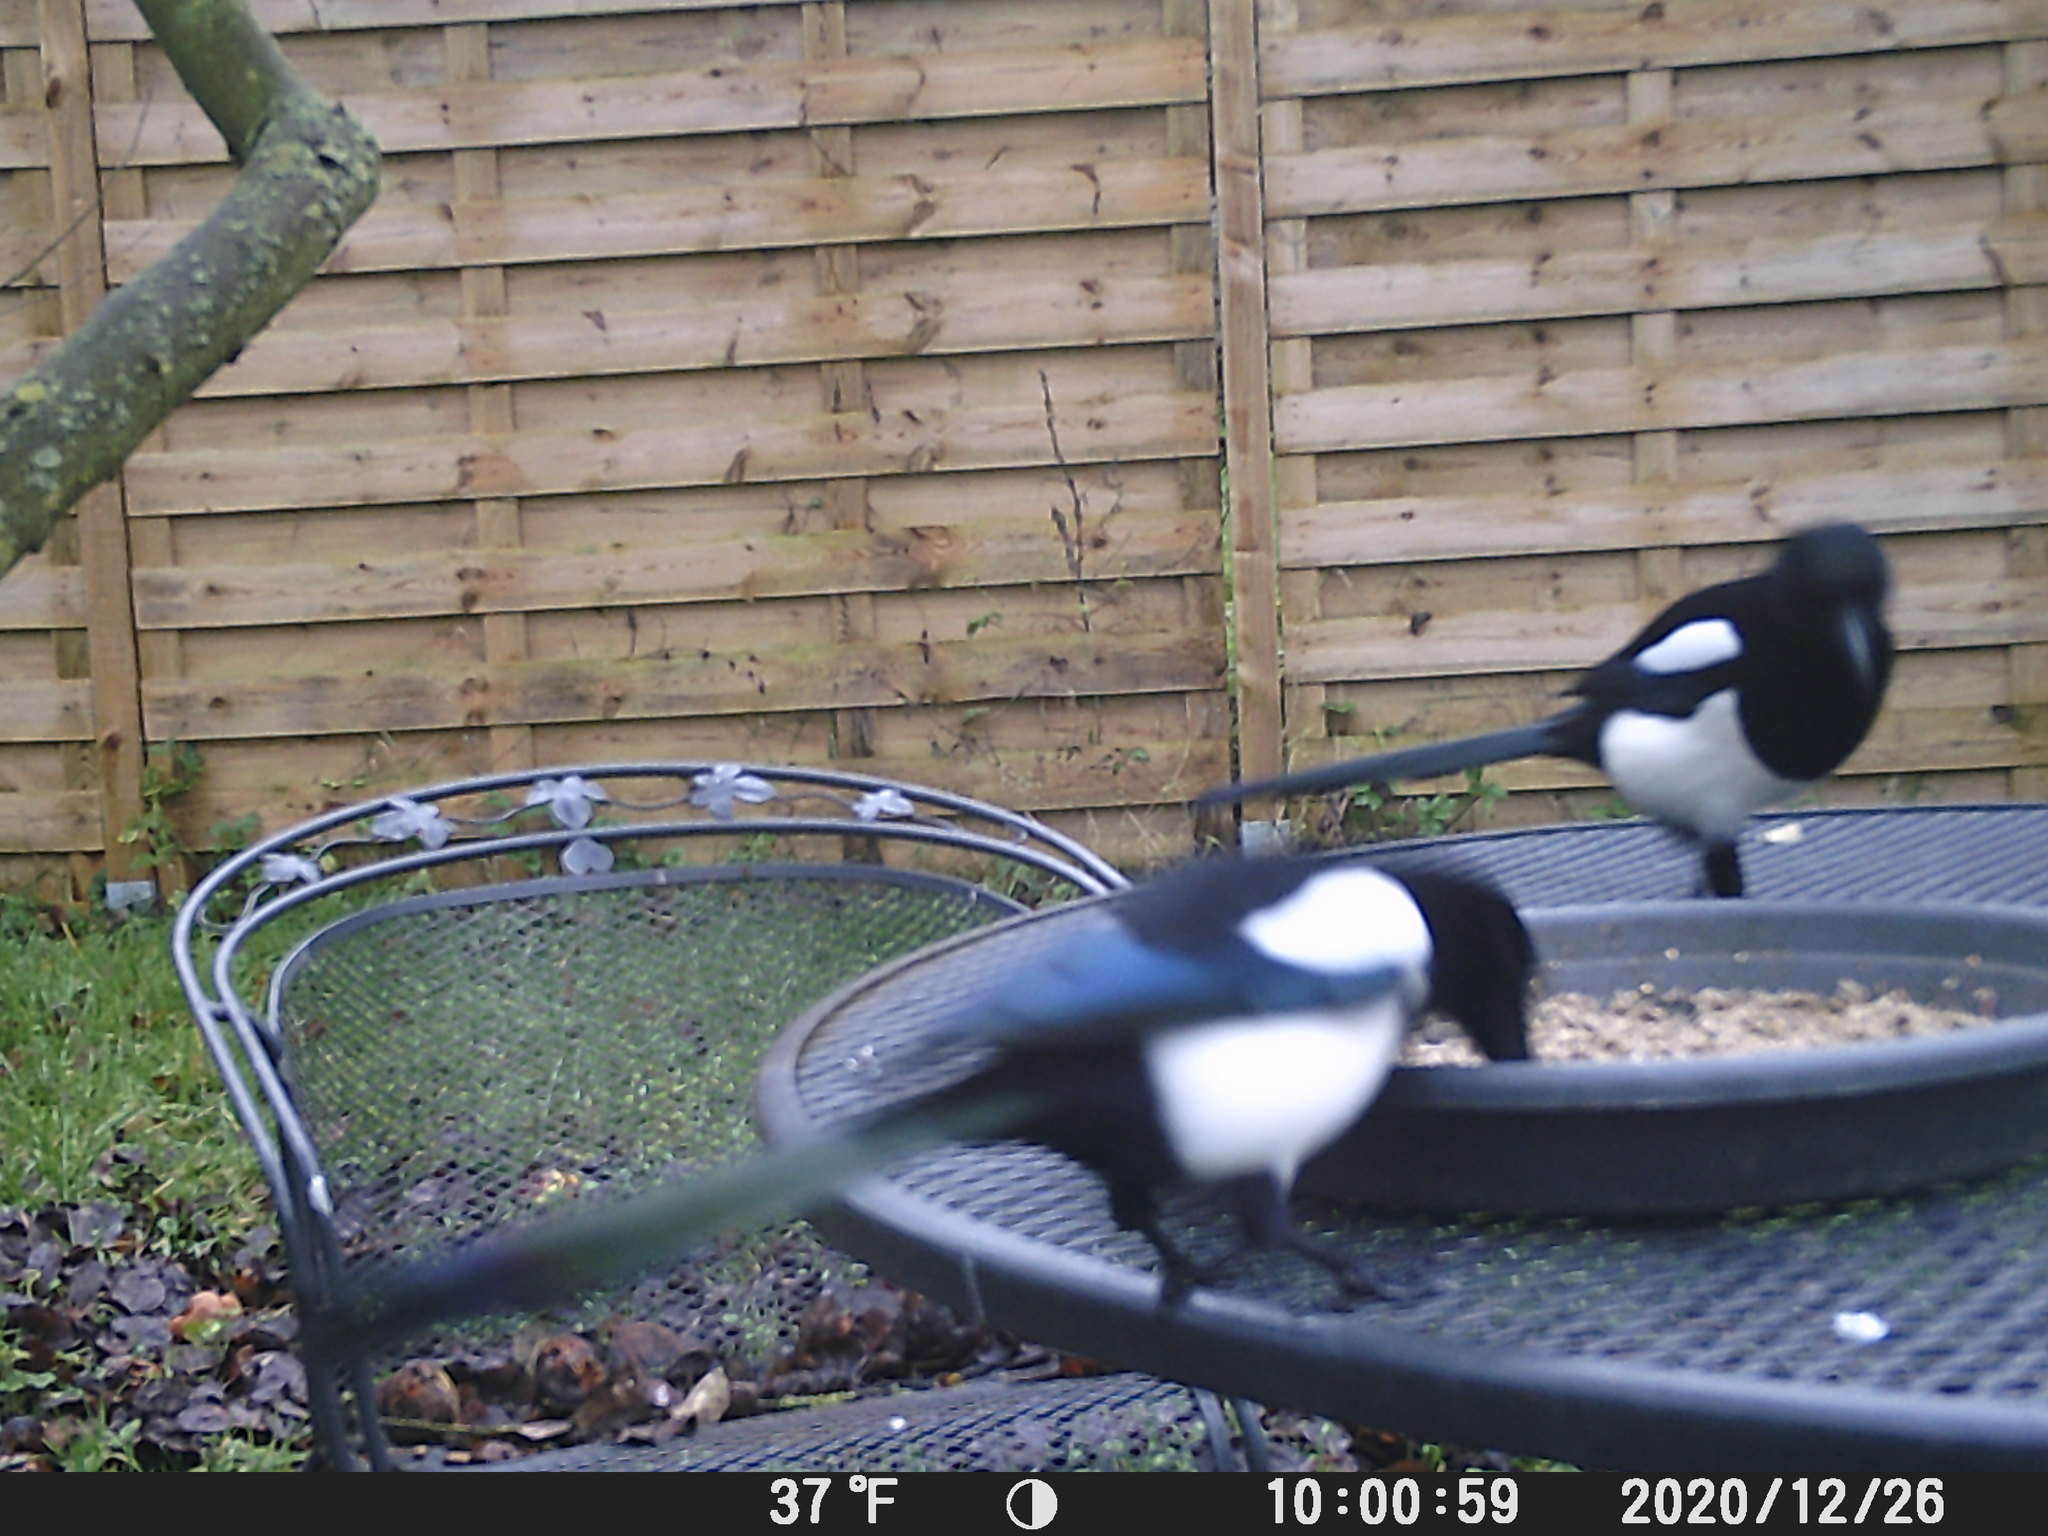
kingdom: Animalia
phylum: Chordata
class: Aves
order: Passeriformes
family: Corvidae
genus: Pica
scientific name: Pica pica
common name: Eurasian magpie
